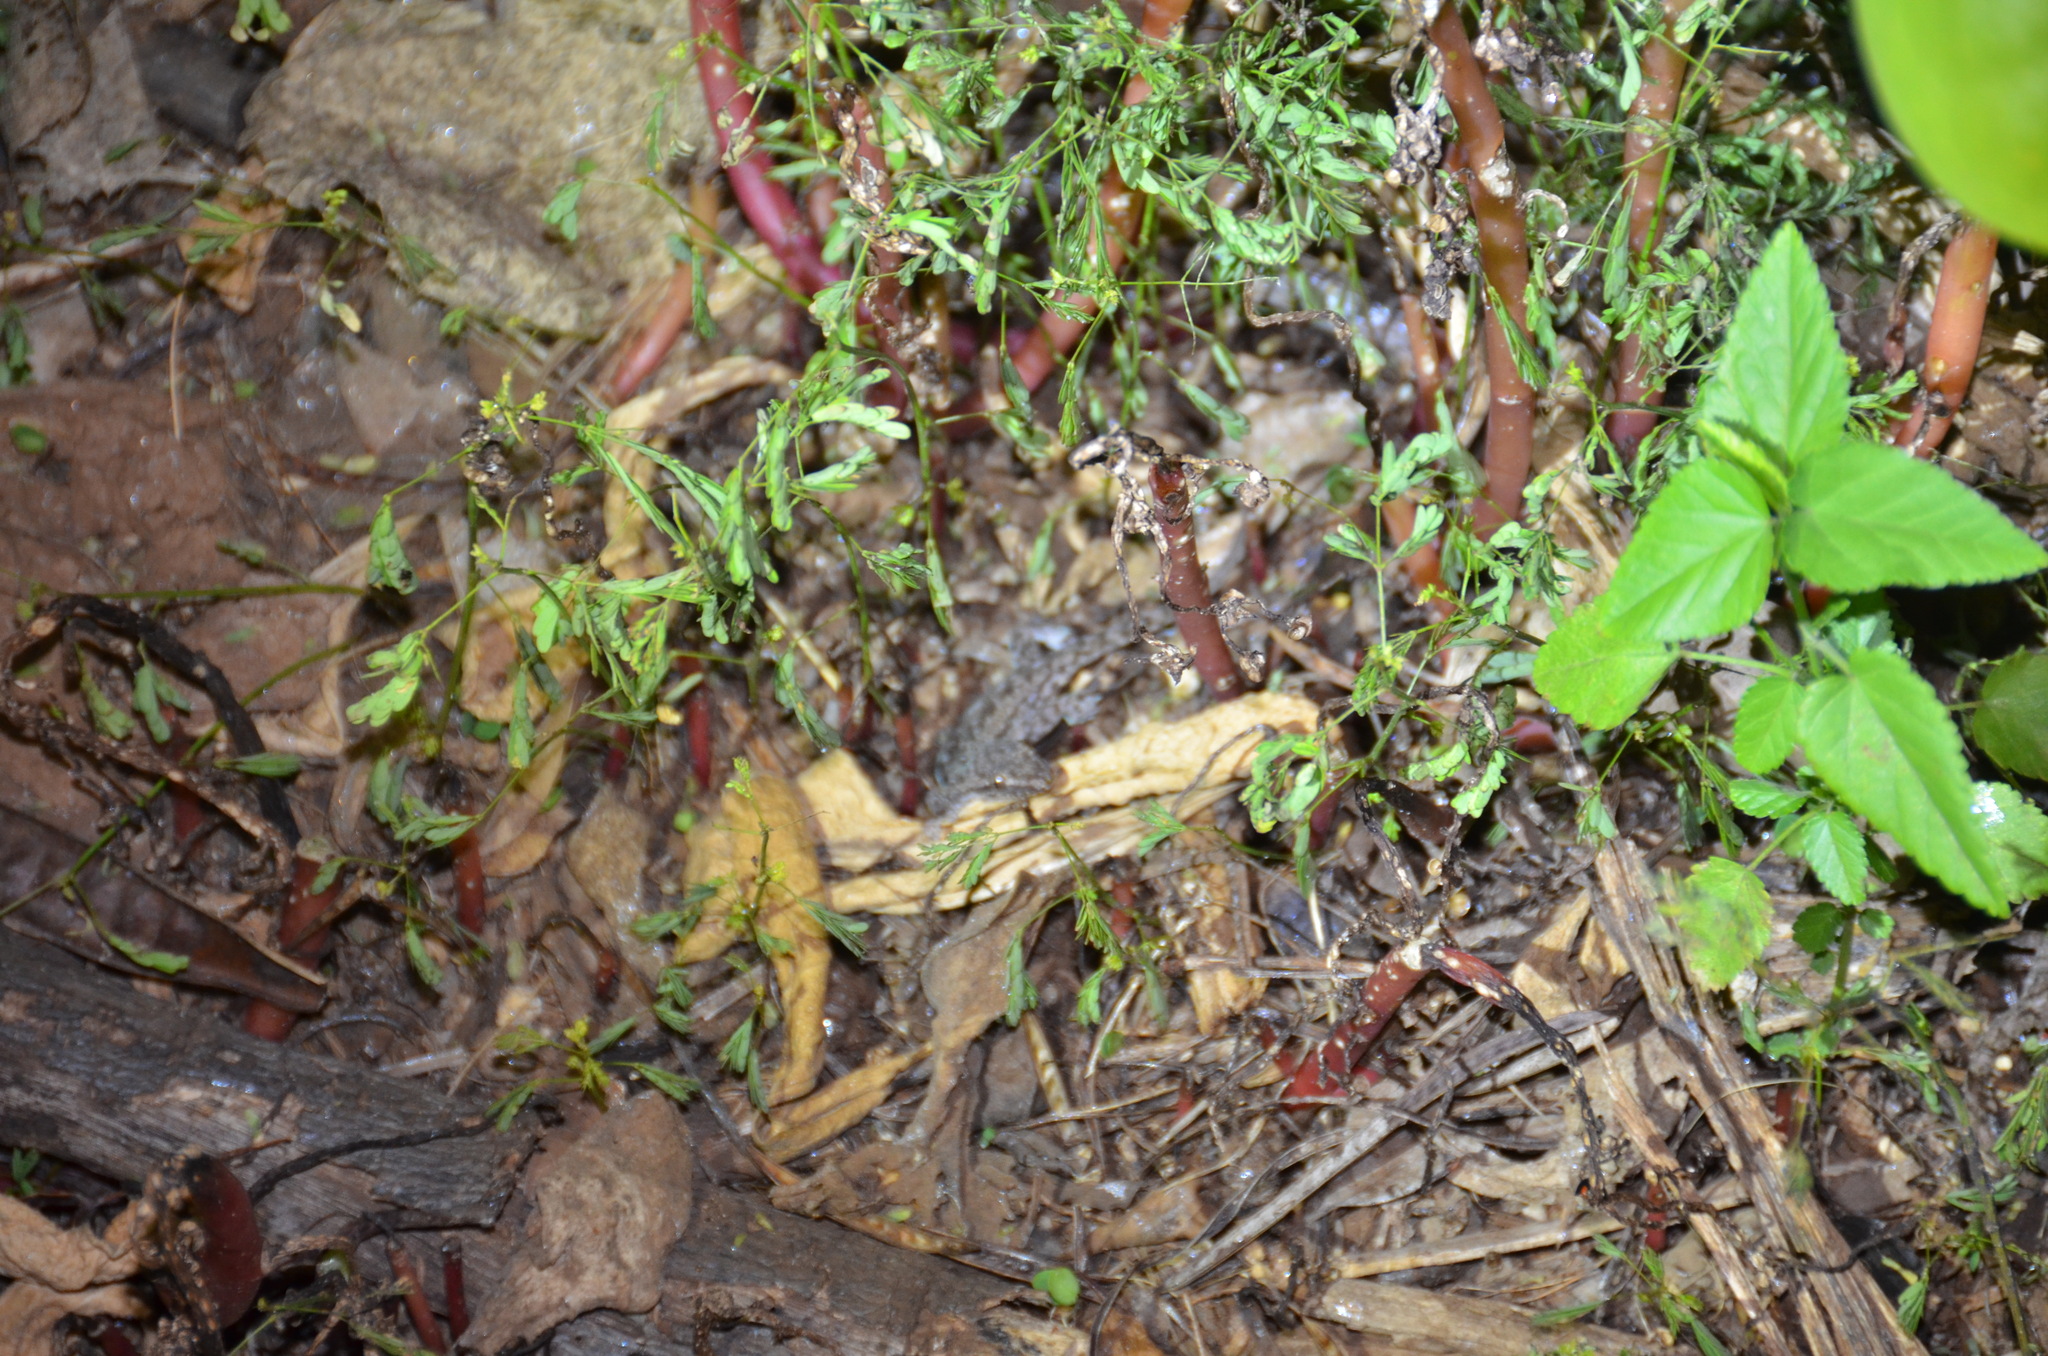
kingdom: Animalia
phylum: Chordata
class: Squamata
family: Gekkonidae
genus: Hemidactylus
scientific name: Hemidactylus frenatus
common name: Common house gecko
